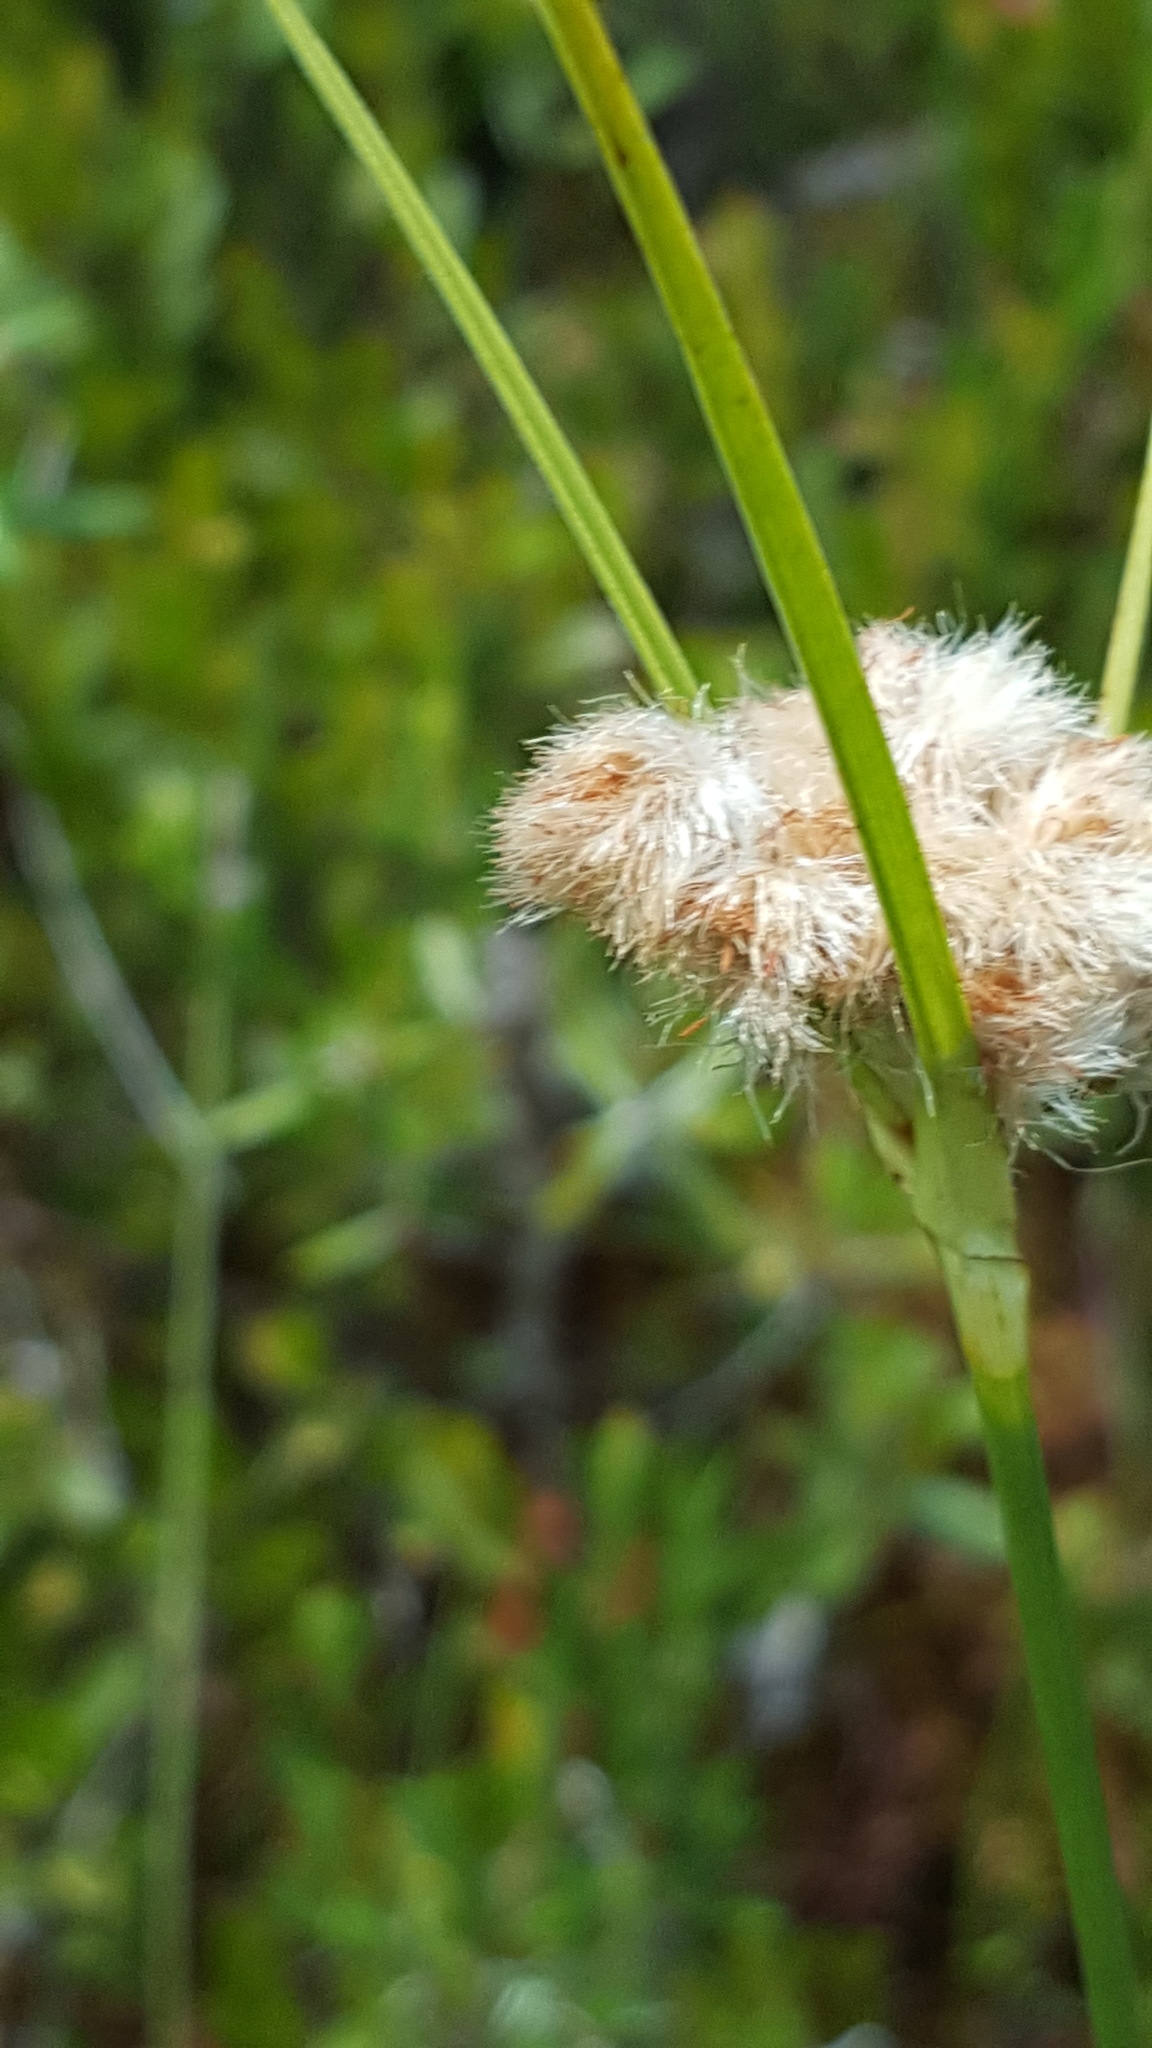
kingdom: Plantae
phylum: Tracheophyta
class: Liliopsida
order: Poales
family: Cyperaceae
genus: Eriophorum
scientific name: Eriophorum virginicum
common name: Tawny cottongrass
